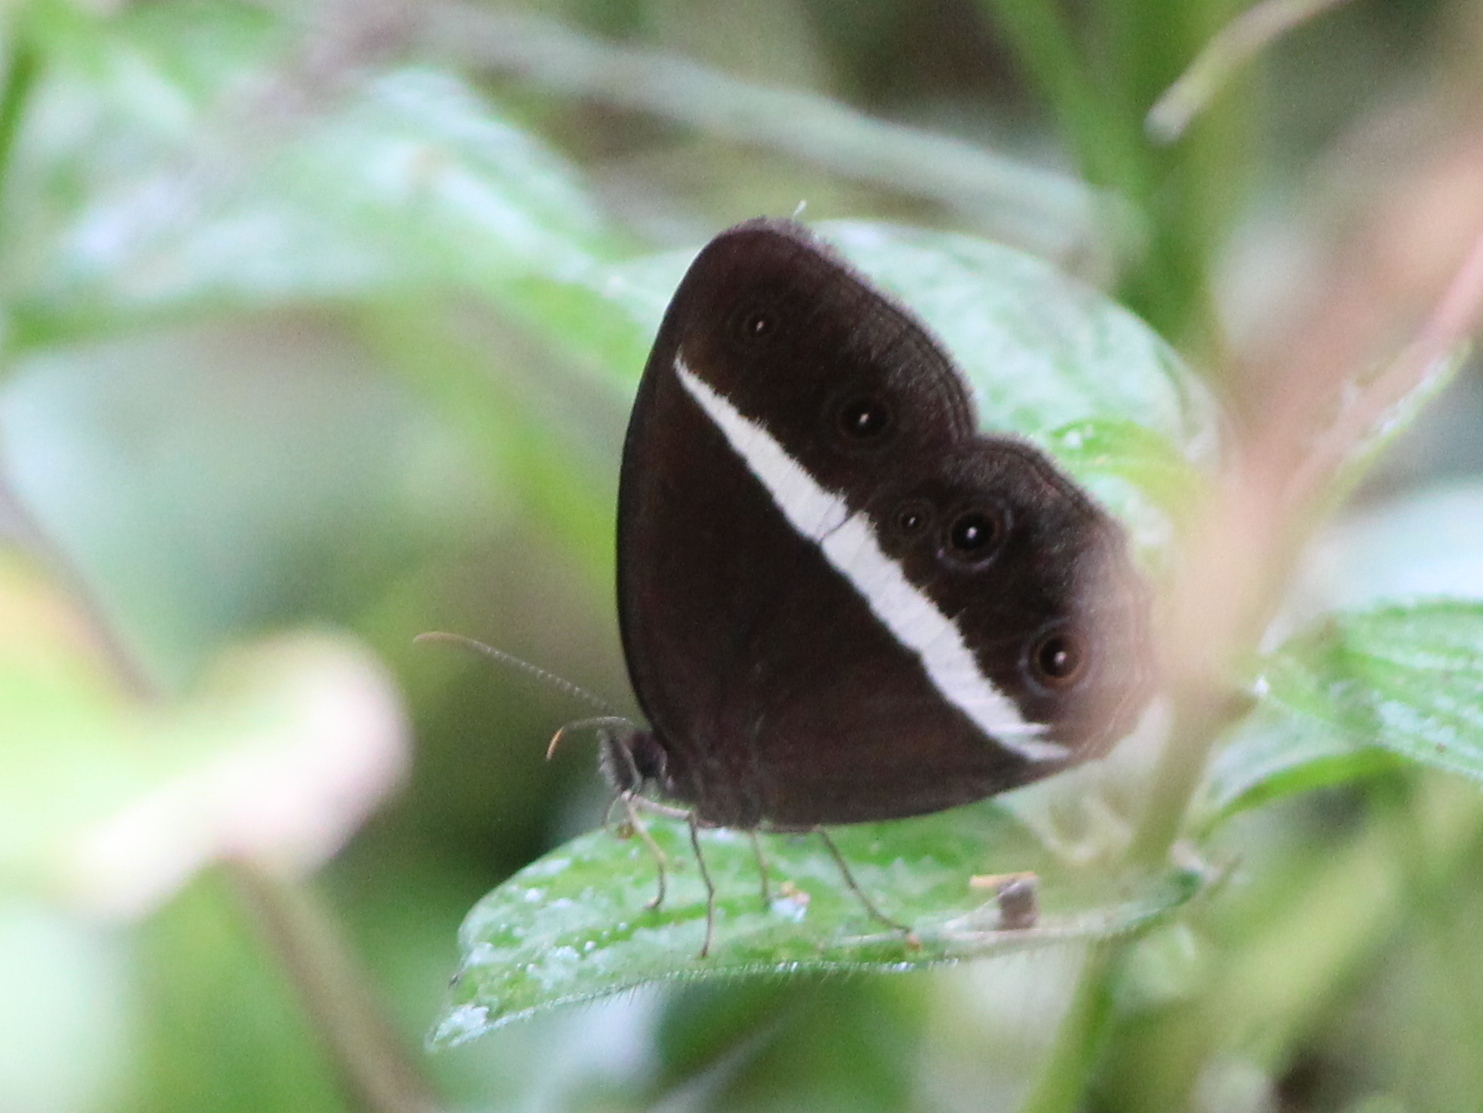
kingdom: Animalia
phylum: Arthropoda
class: Insecta
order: Lepidoptera
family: Nymphalidae
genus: Orsotriaena
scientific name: Orsotriaena medus
